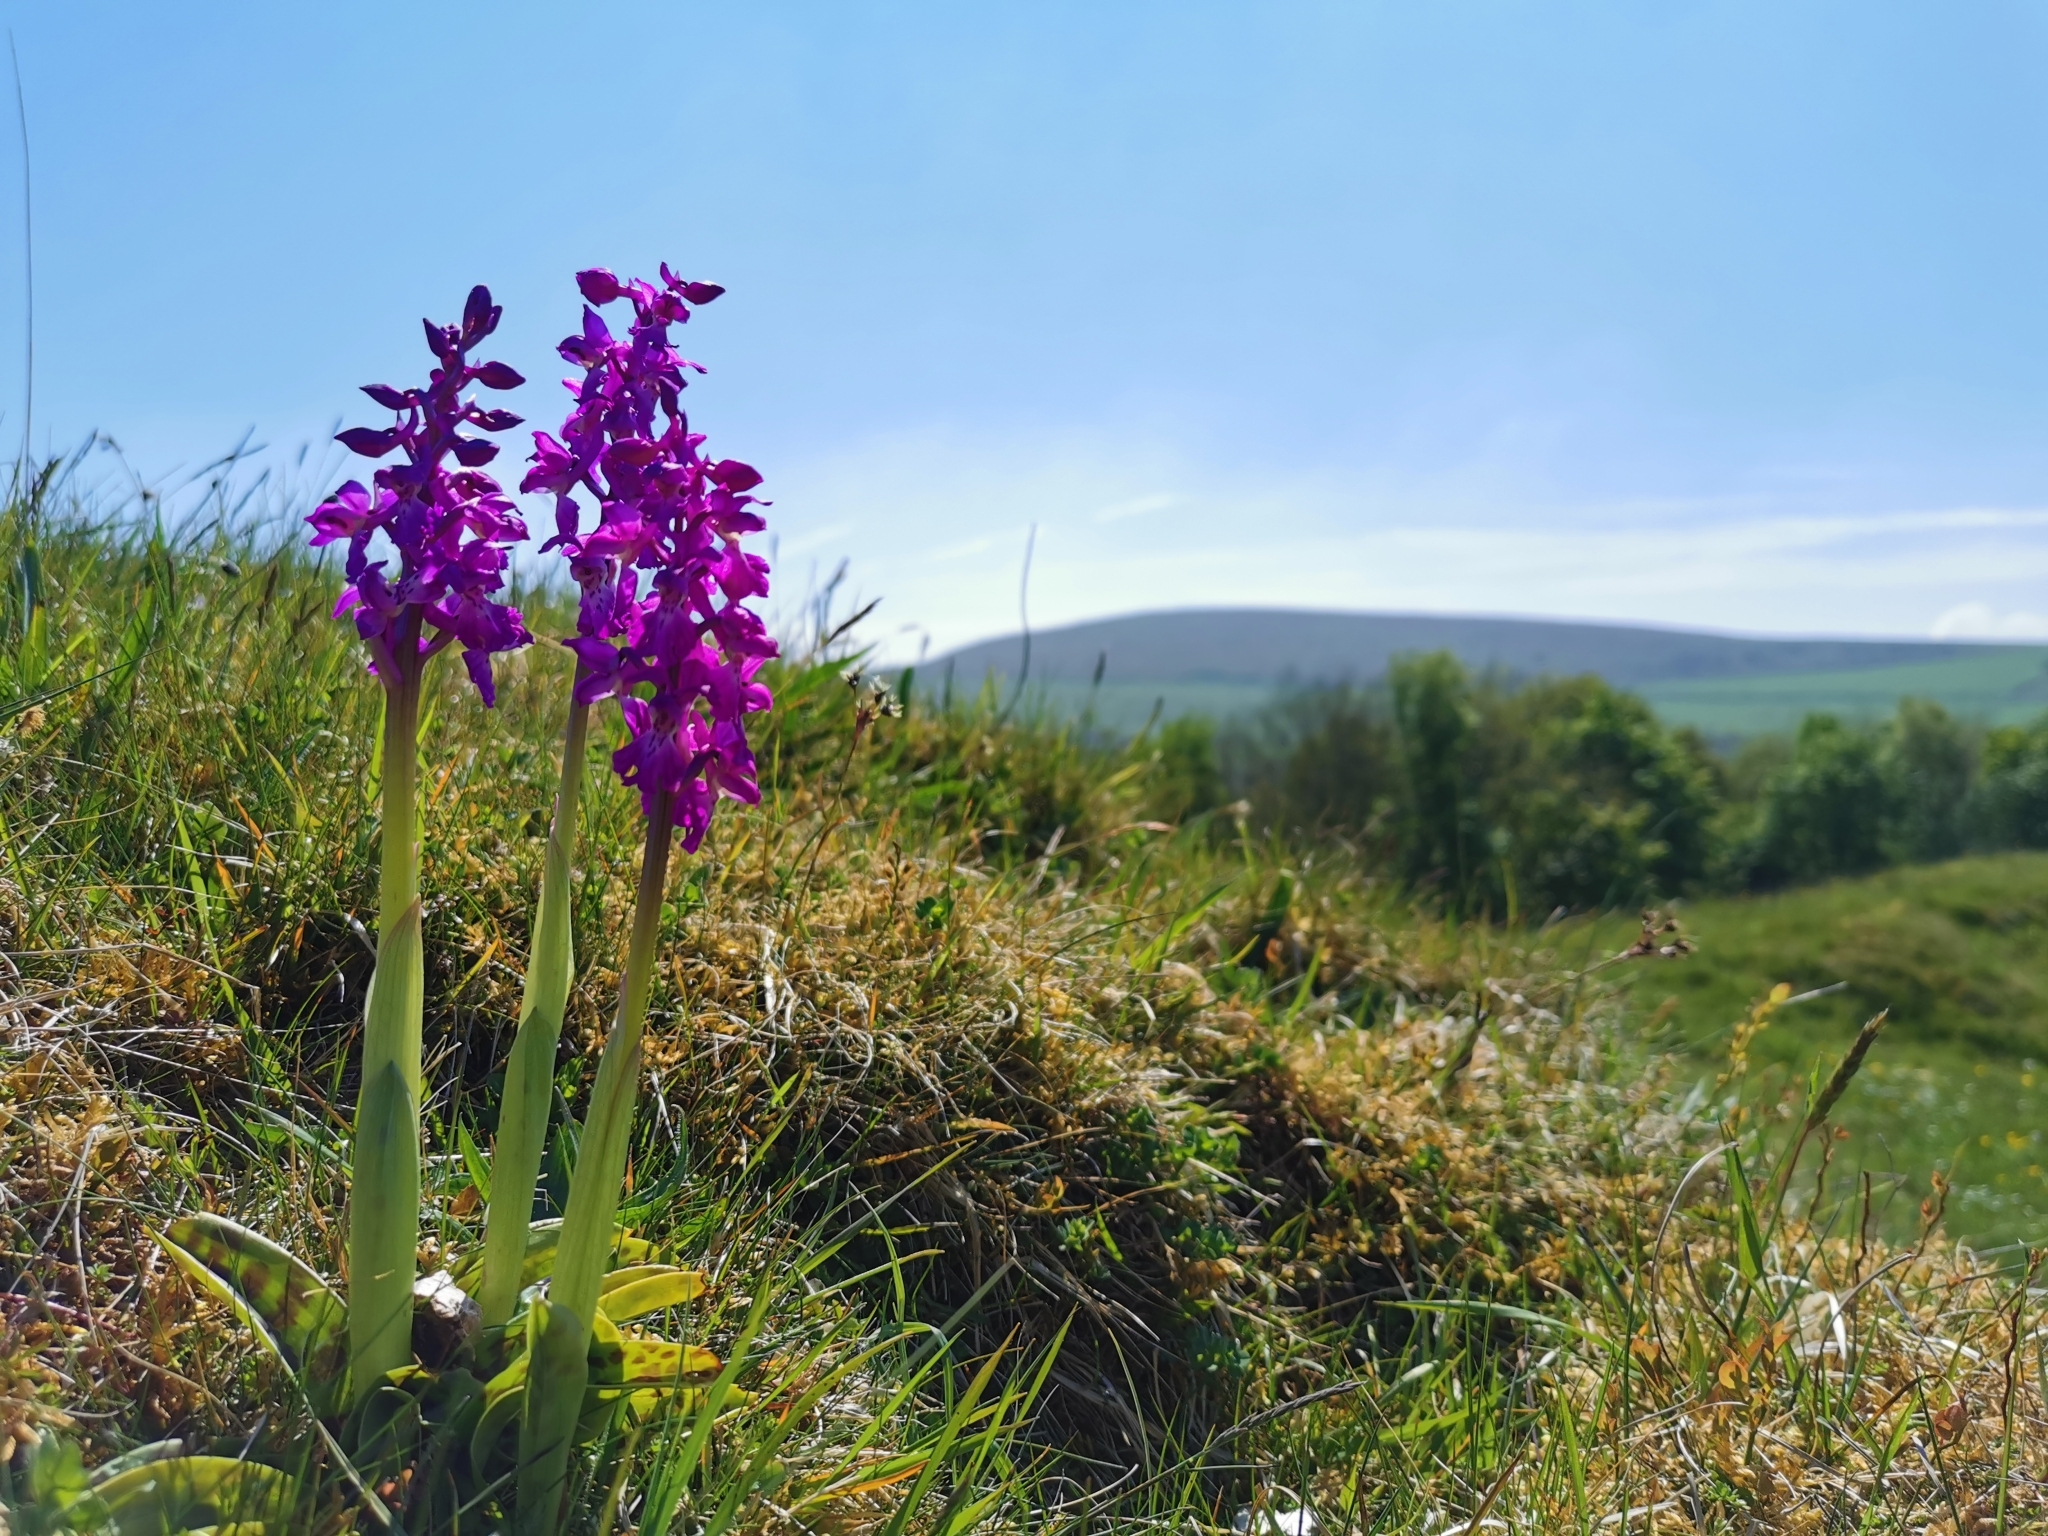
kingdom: Plantae
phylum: Tracheophyta
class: Liliopsida
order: Asparagales
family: Orchidaceae
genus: Orchis
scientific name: Orchis mascula
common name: Early-purple orchid
